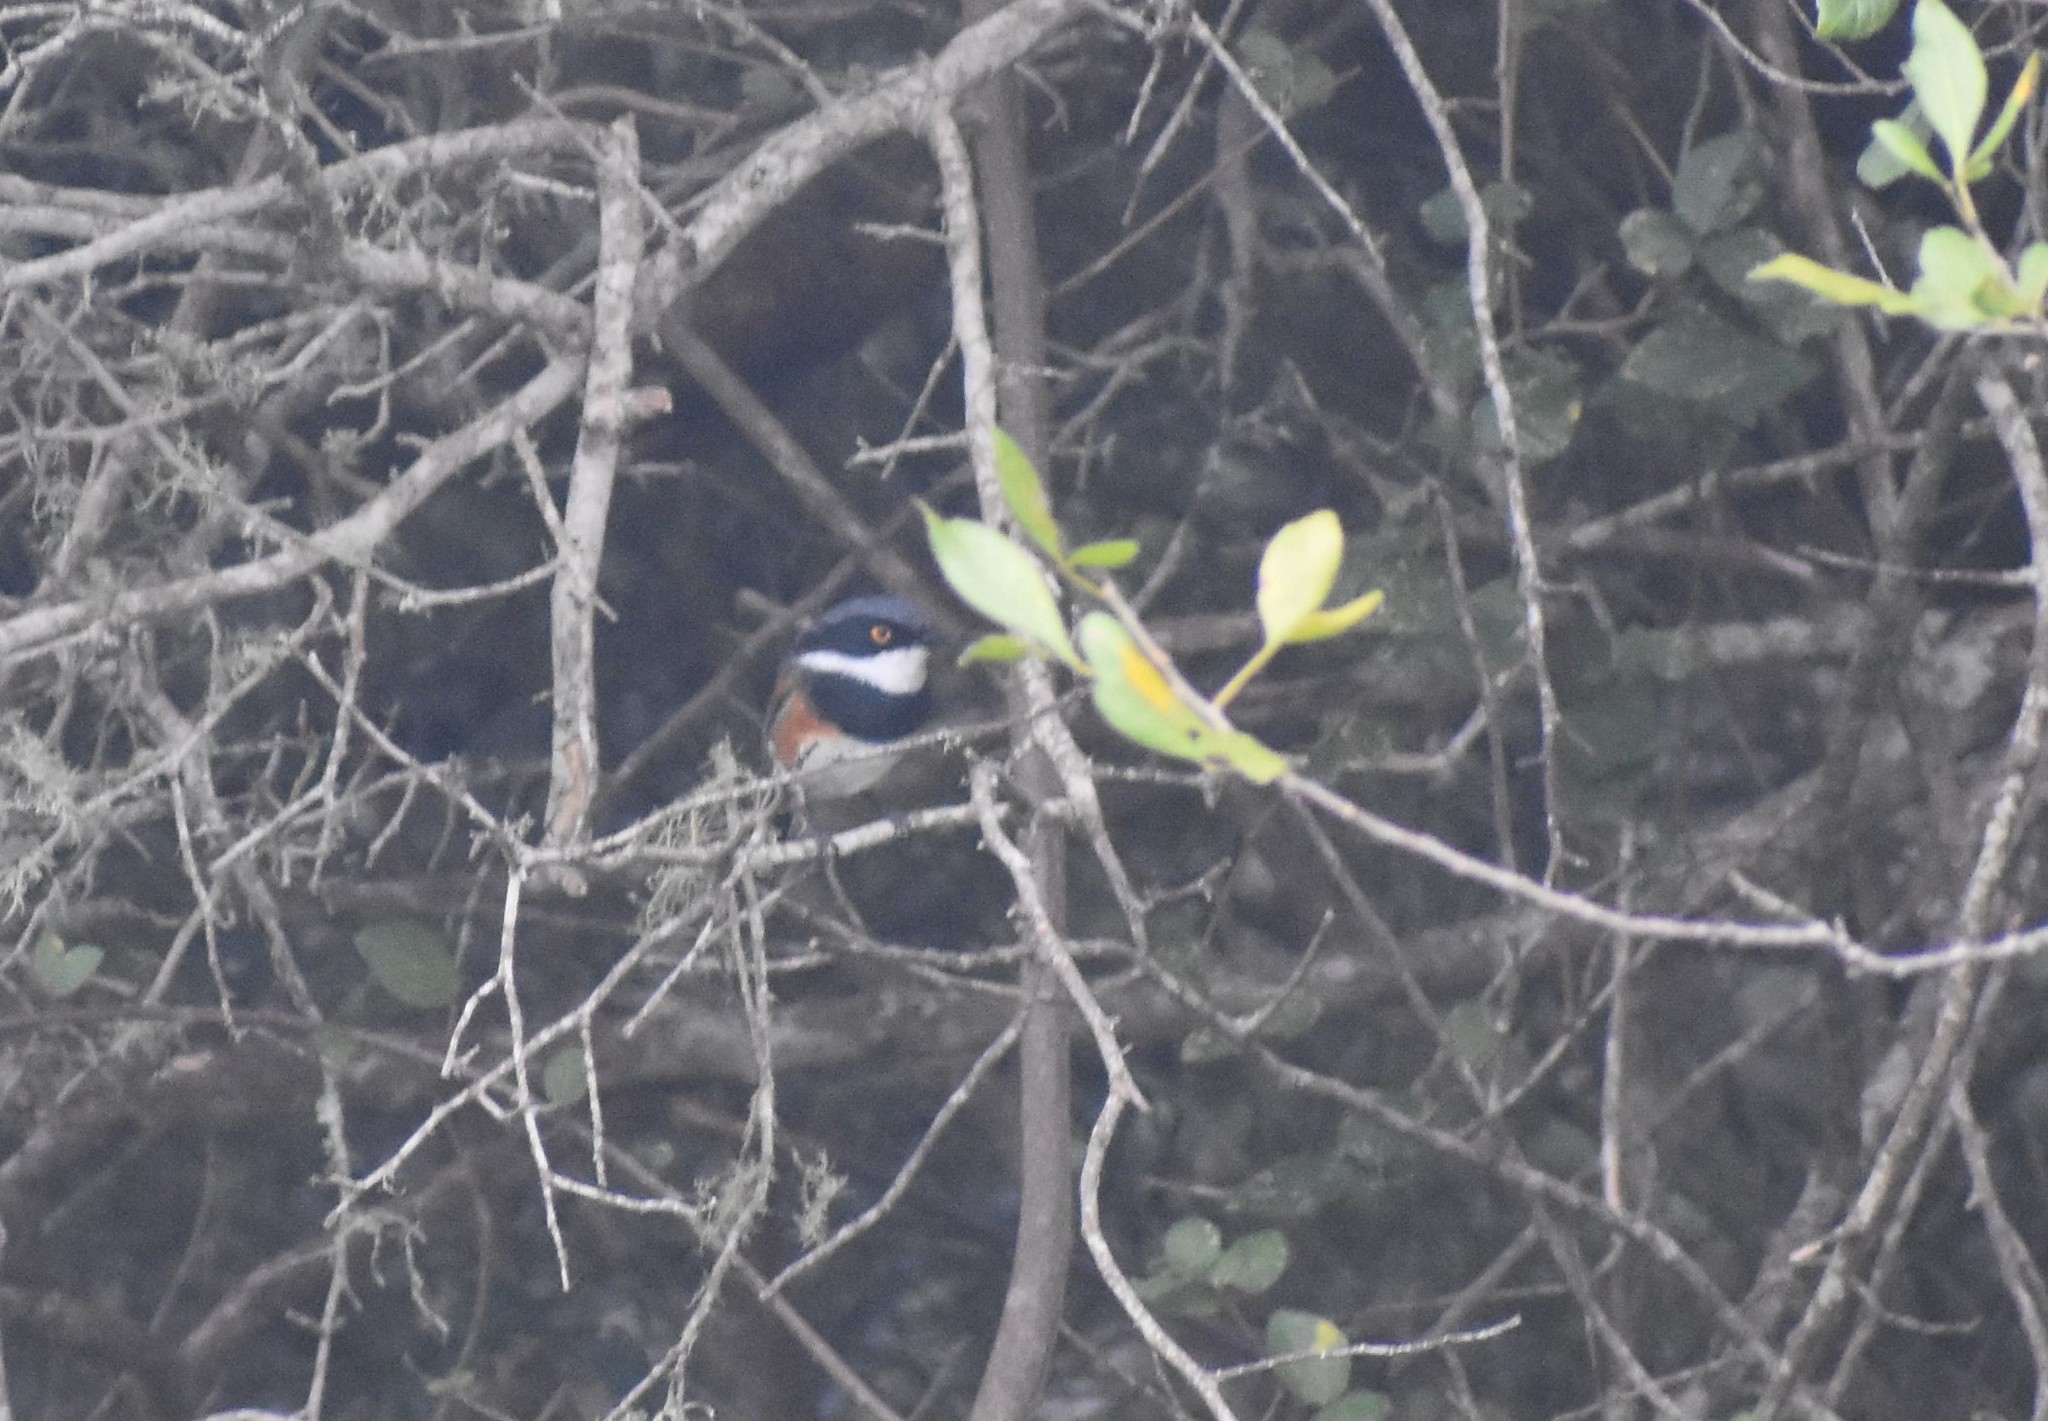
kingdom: Animalia
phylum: Chordata
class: Aves
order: Passeriformes
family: Platysteiridae
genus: Batis
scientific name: Batis capensis
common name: Cape batis
